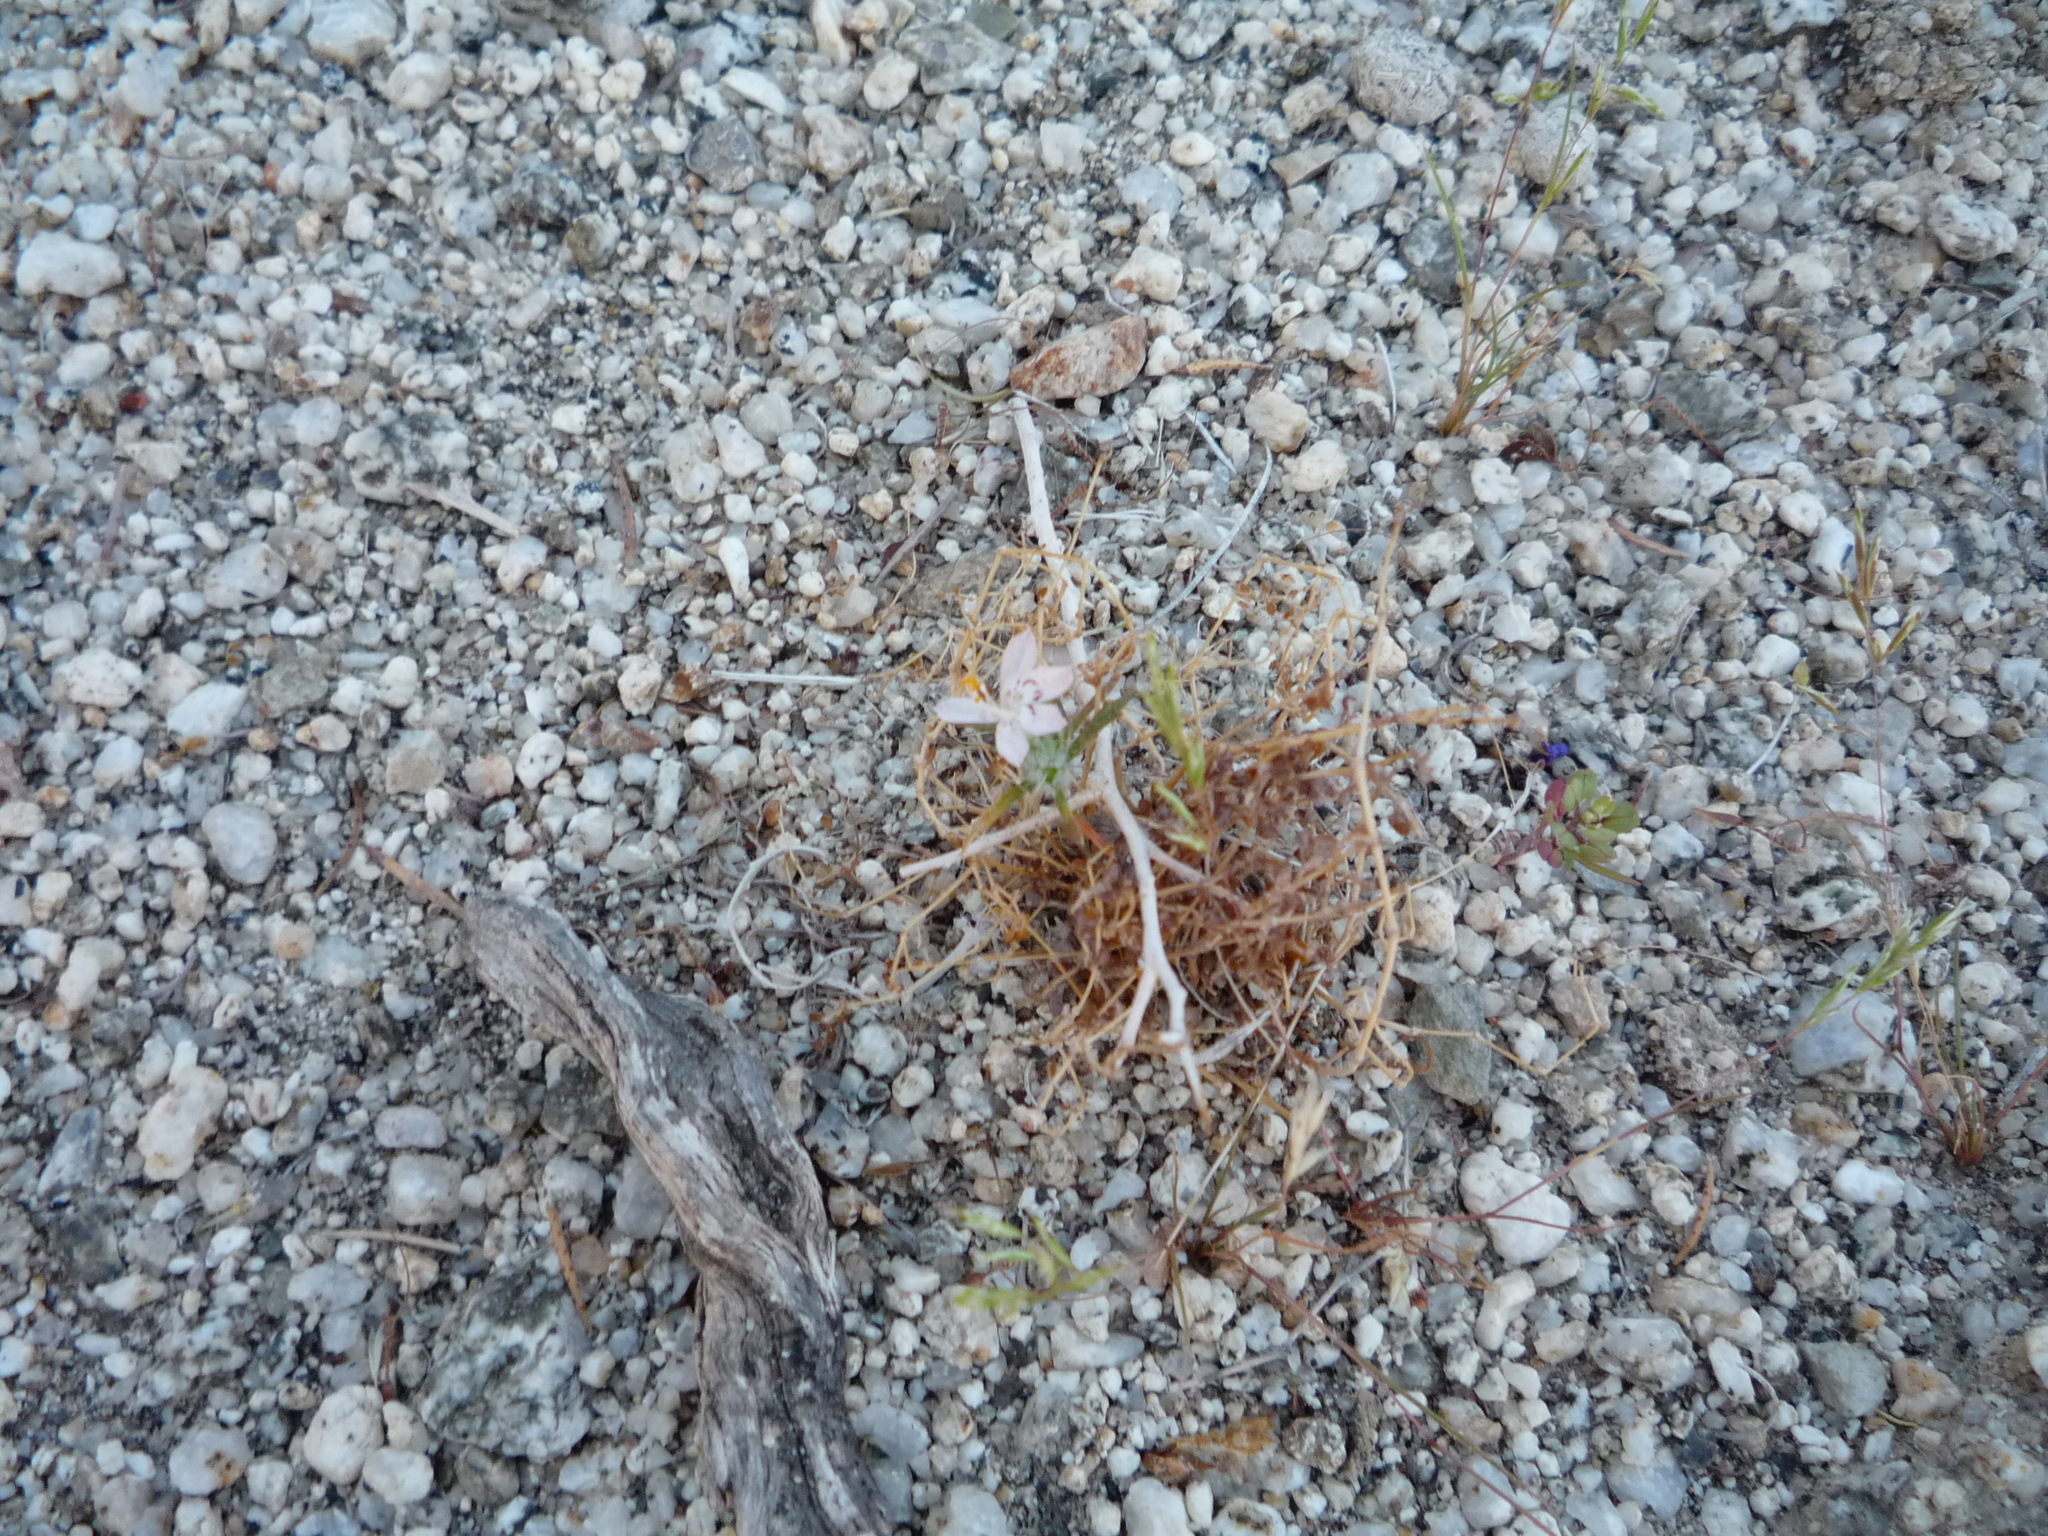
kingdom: Plantae
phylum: Tracheophyta
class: Magnoliopsida
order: Ericales
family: Polemoniaceae
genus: Loeseliastrum
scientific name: Loeseliastrum schottii
